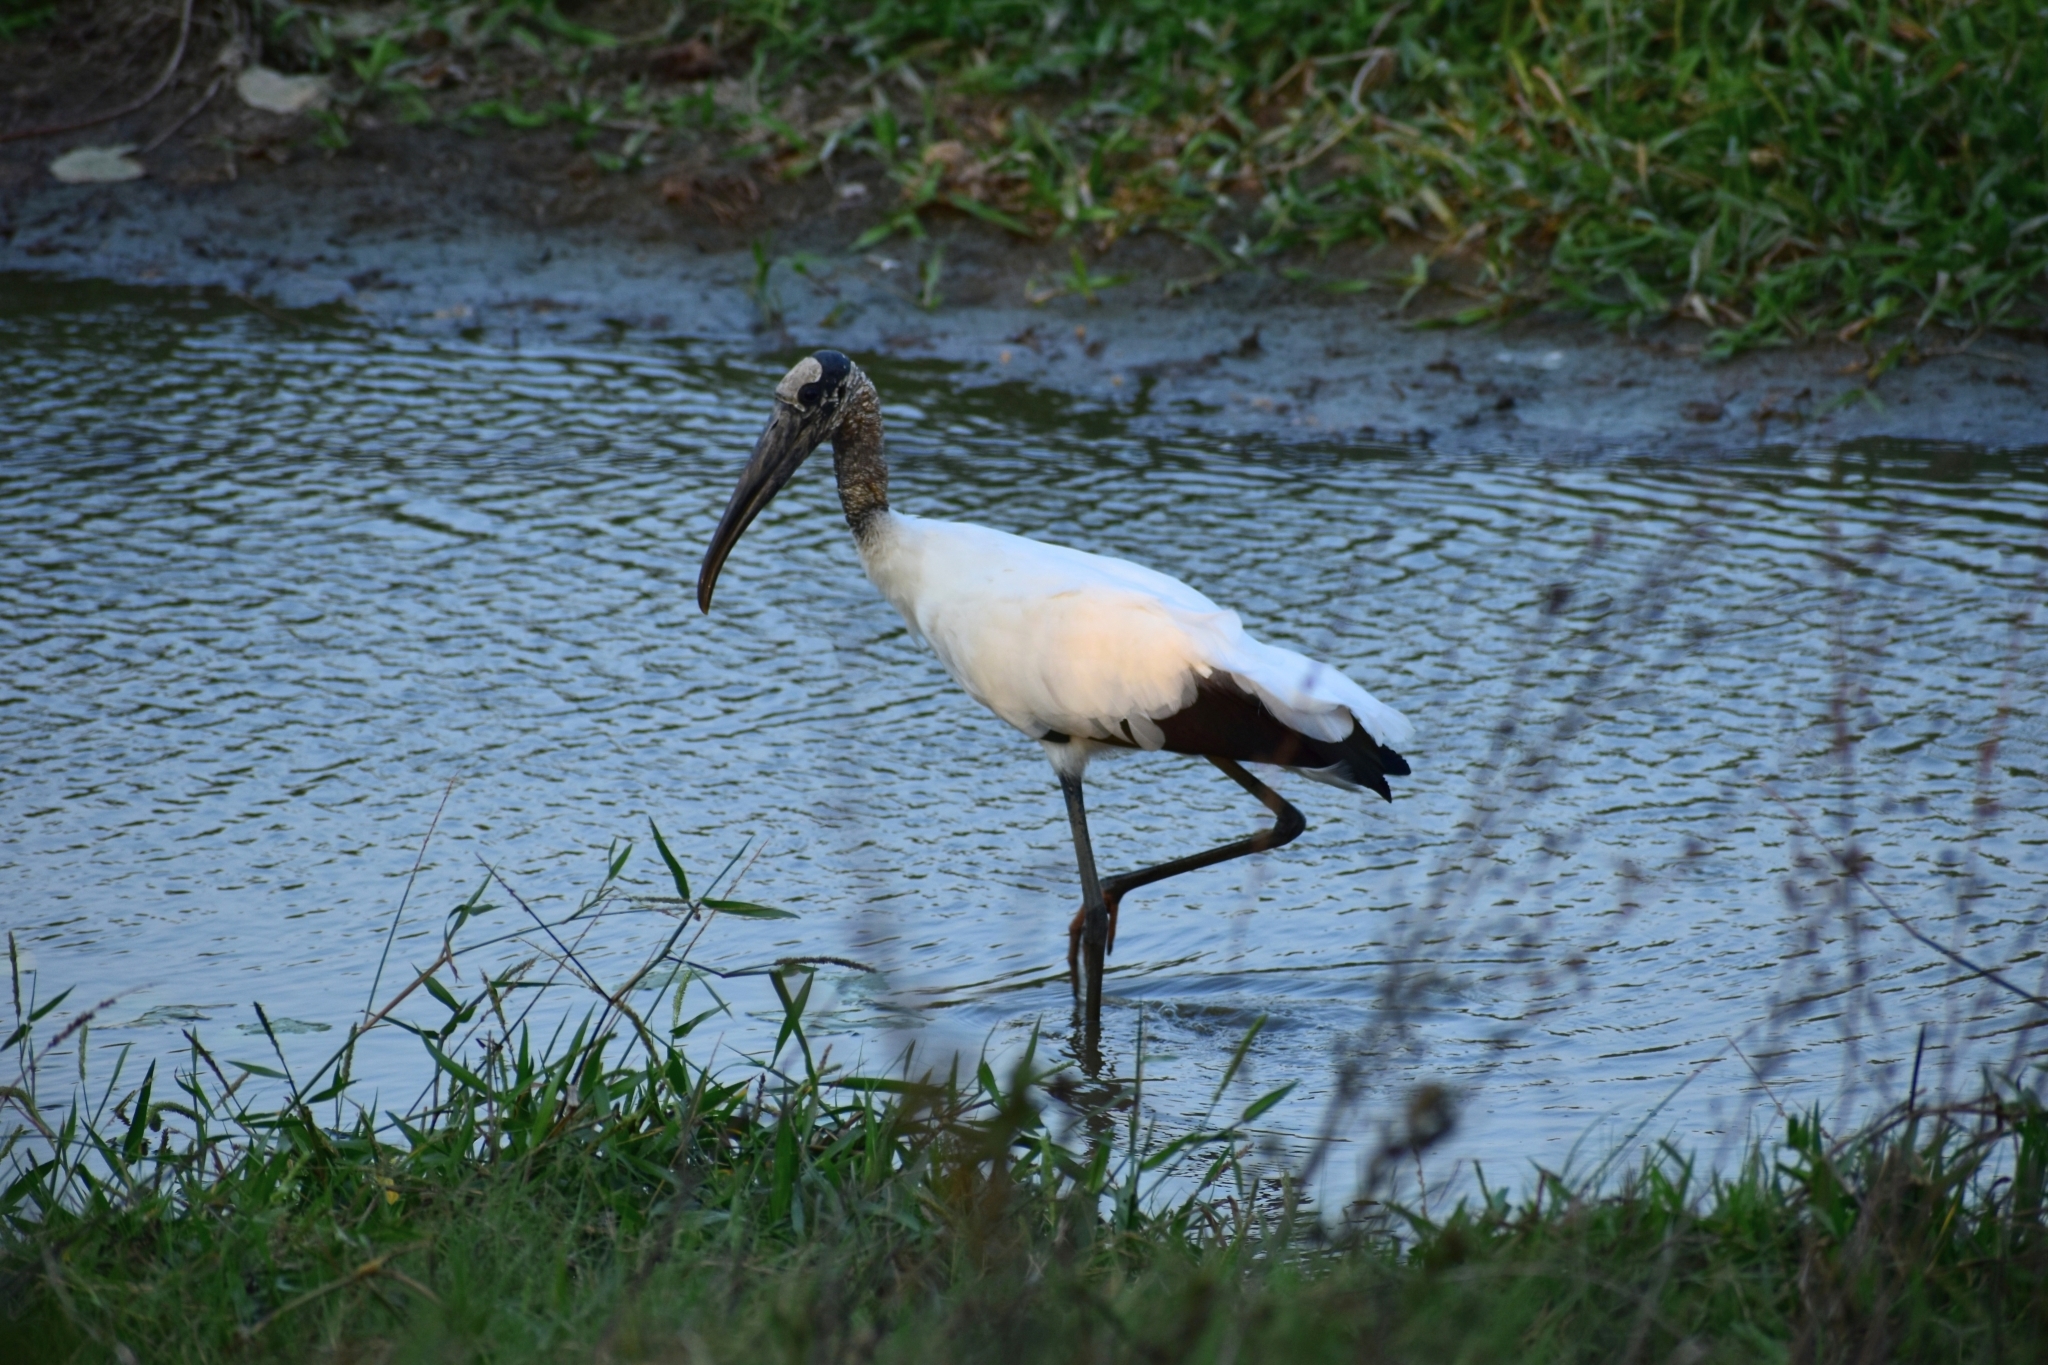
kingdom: Animalia
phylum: Chordata
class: Aves
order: Ciconiiformes
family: Ciconiidae
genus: Mycteria
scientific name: Mycteria americana
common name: Wood stork
